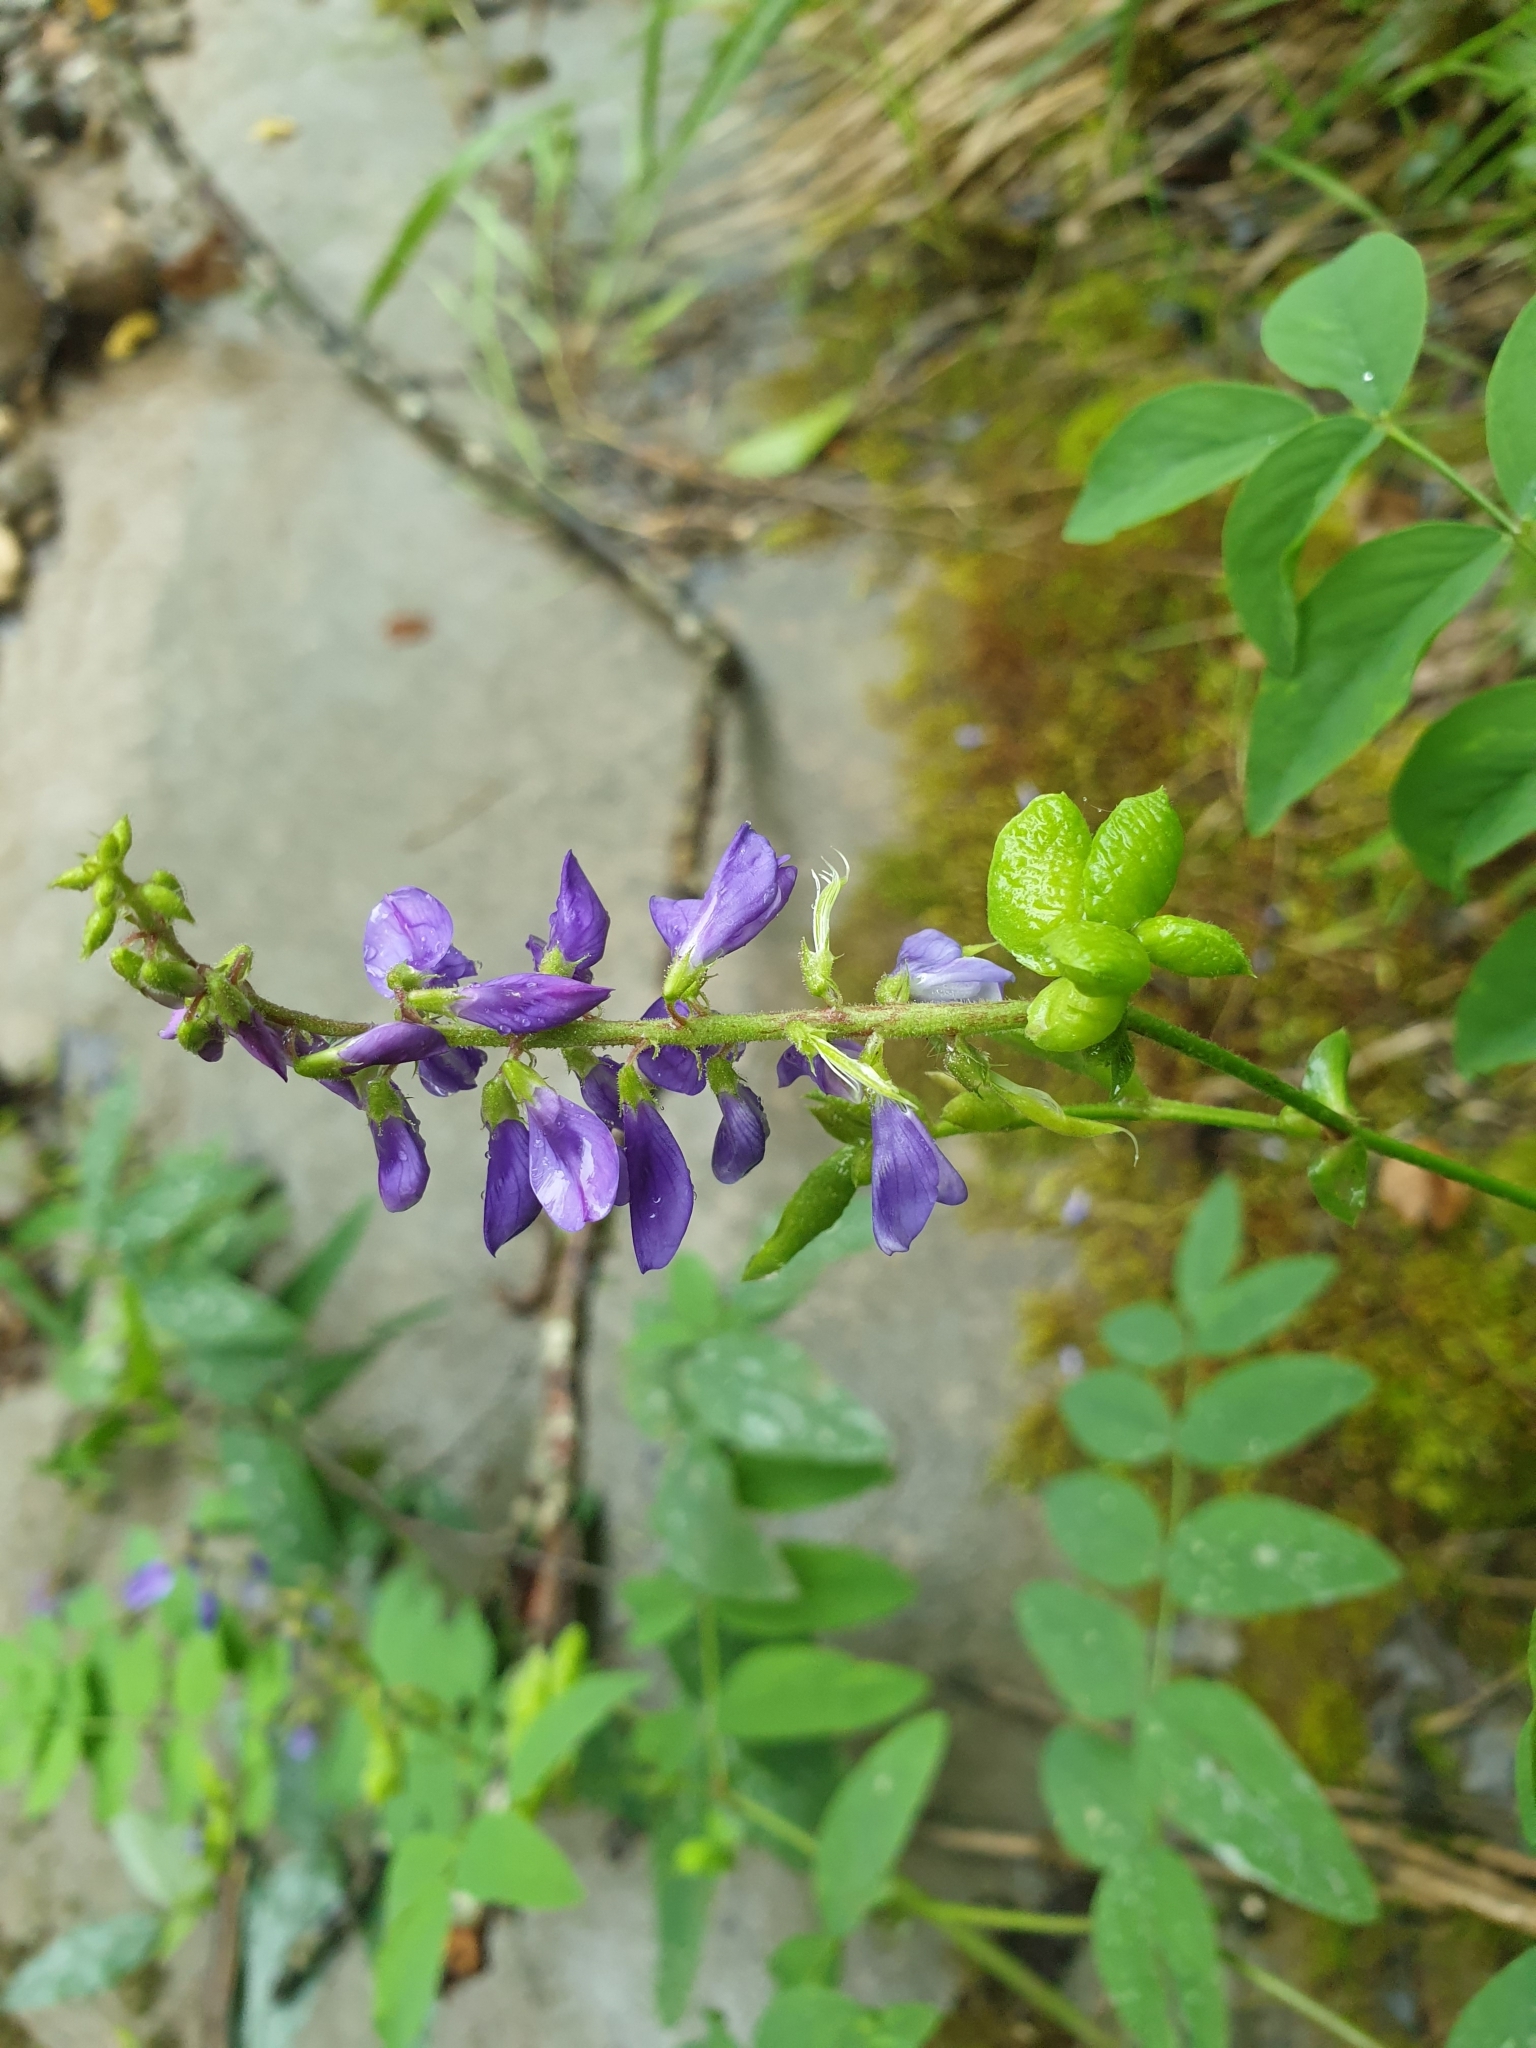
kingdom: Plantae
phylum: Tracheophyta
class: Magnoliopsida
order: Fabales
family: Fabaceae
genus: Galega
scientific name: Galega orientalis
